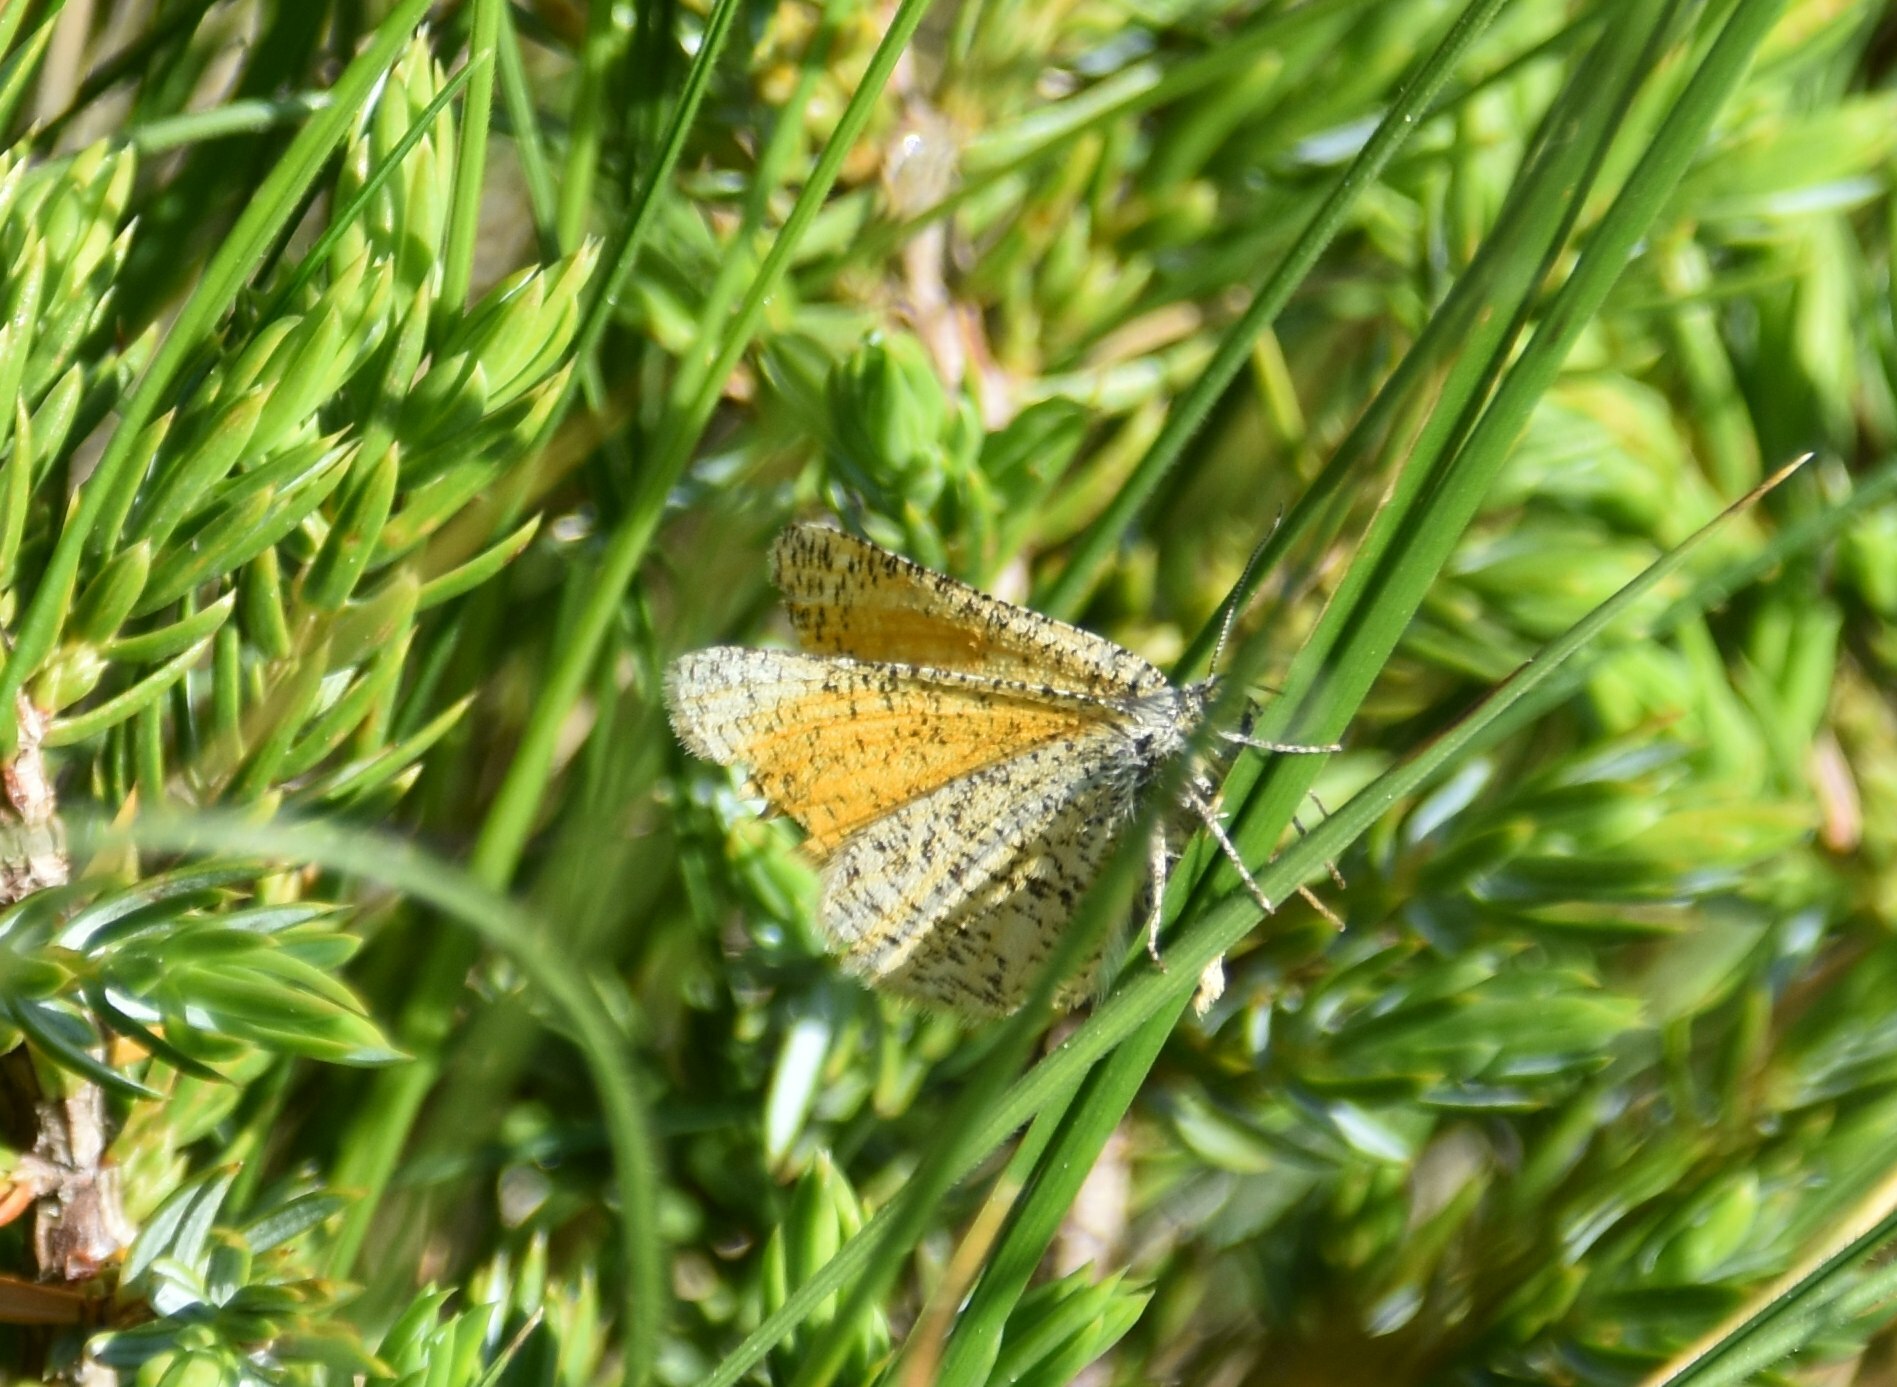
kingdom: Animalia
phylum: Arthropoda
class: Insecta
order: Lepidoptera
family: Geometridae
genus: Isturgia
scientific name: Isturgia limbaria
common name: Frosted yellow
